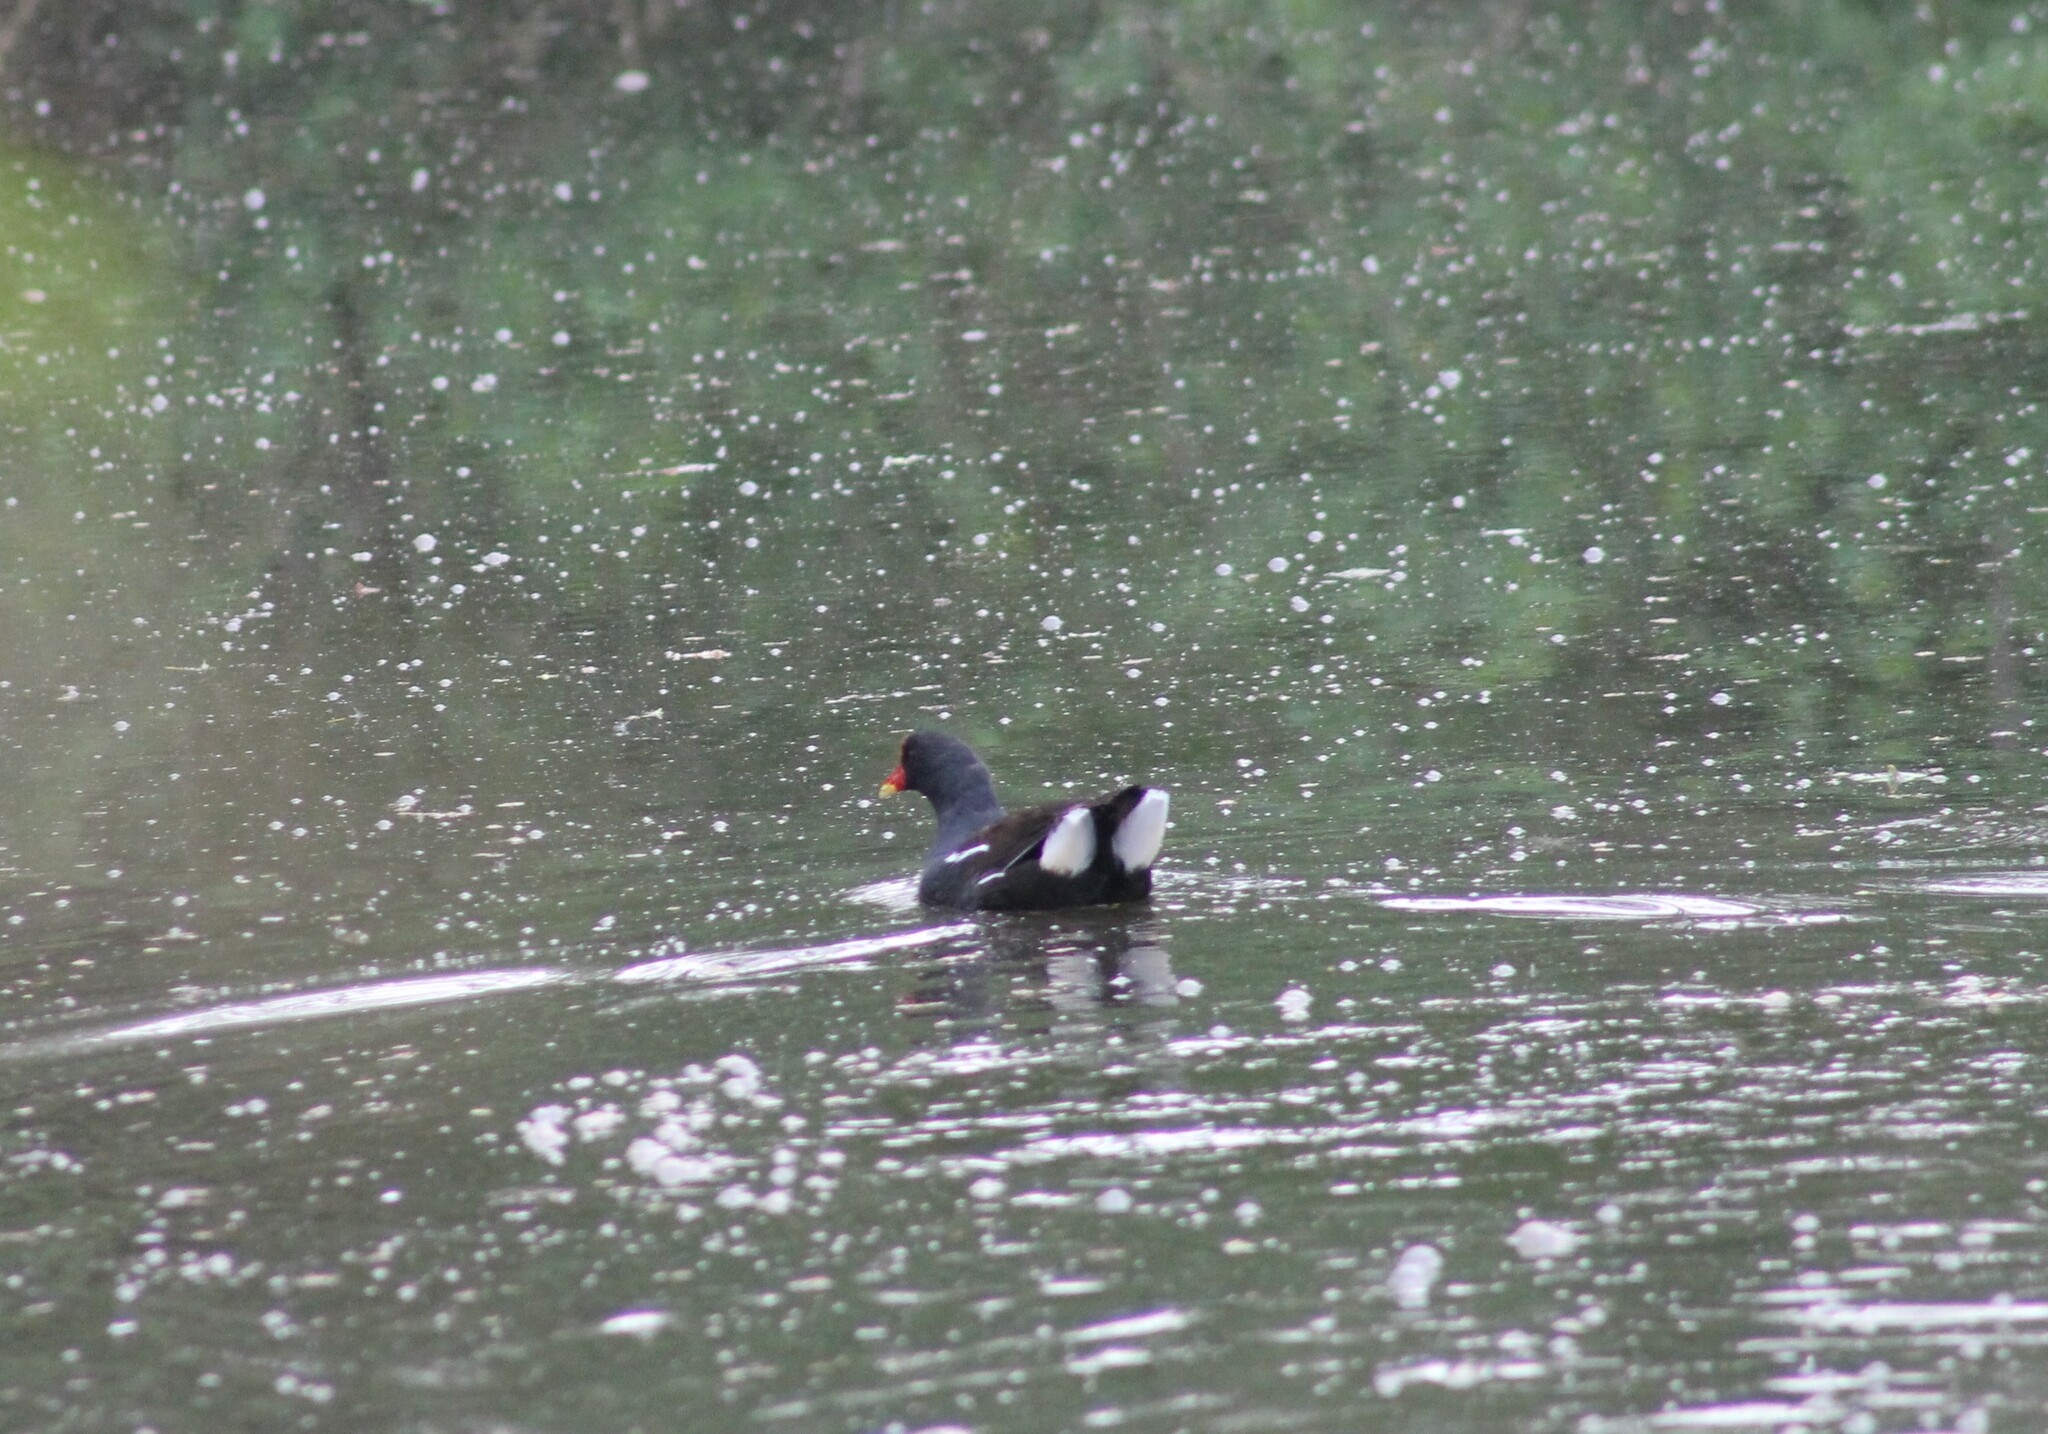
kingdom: Animalia
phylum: Chordata
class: Aves
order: Gruiformes
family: Rallidae
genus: Gallinula
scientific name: Gallinula chloropus
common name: Common moorhen
